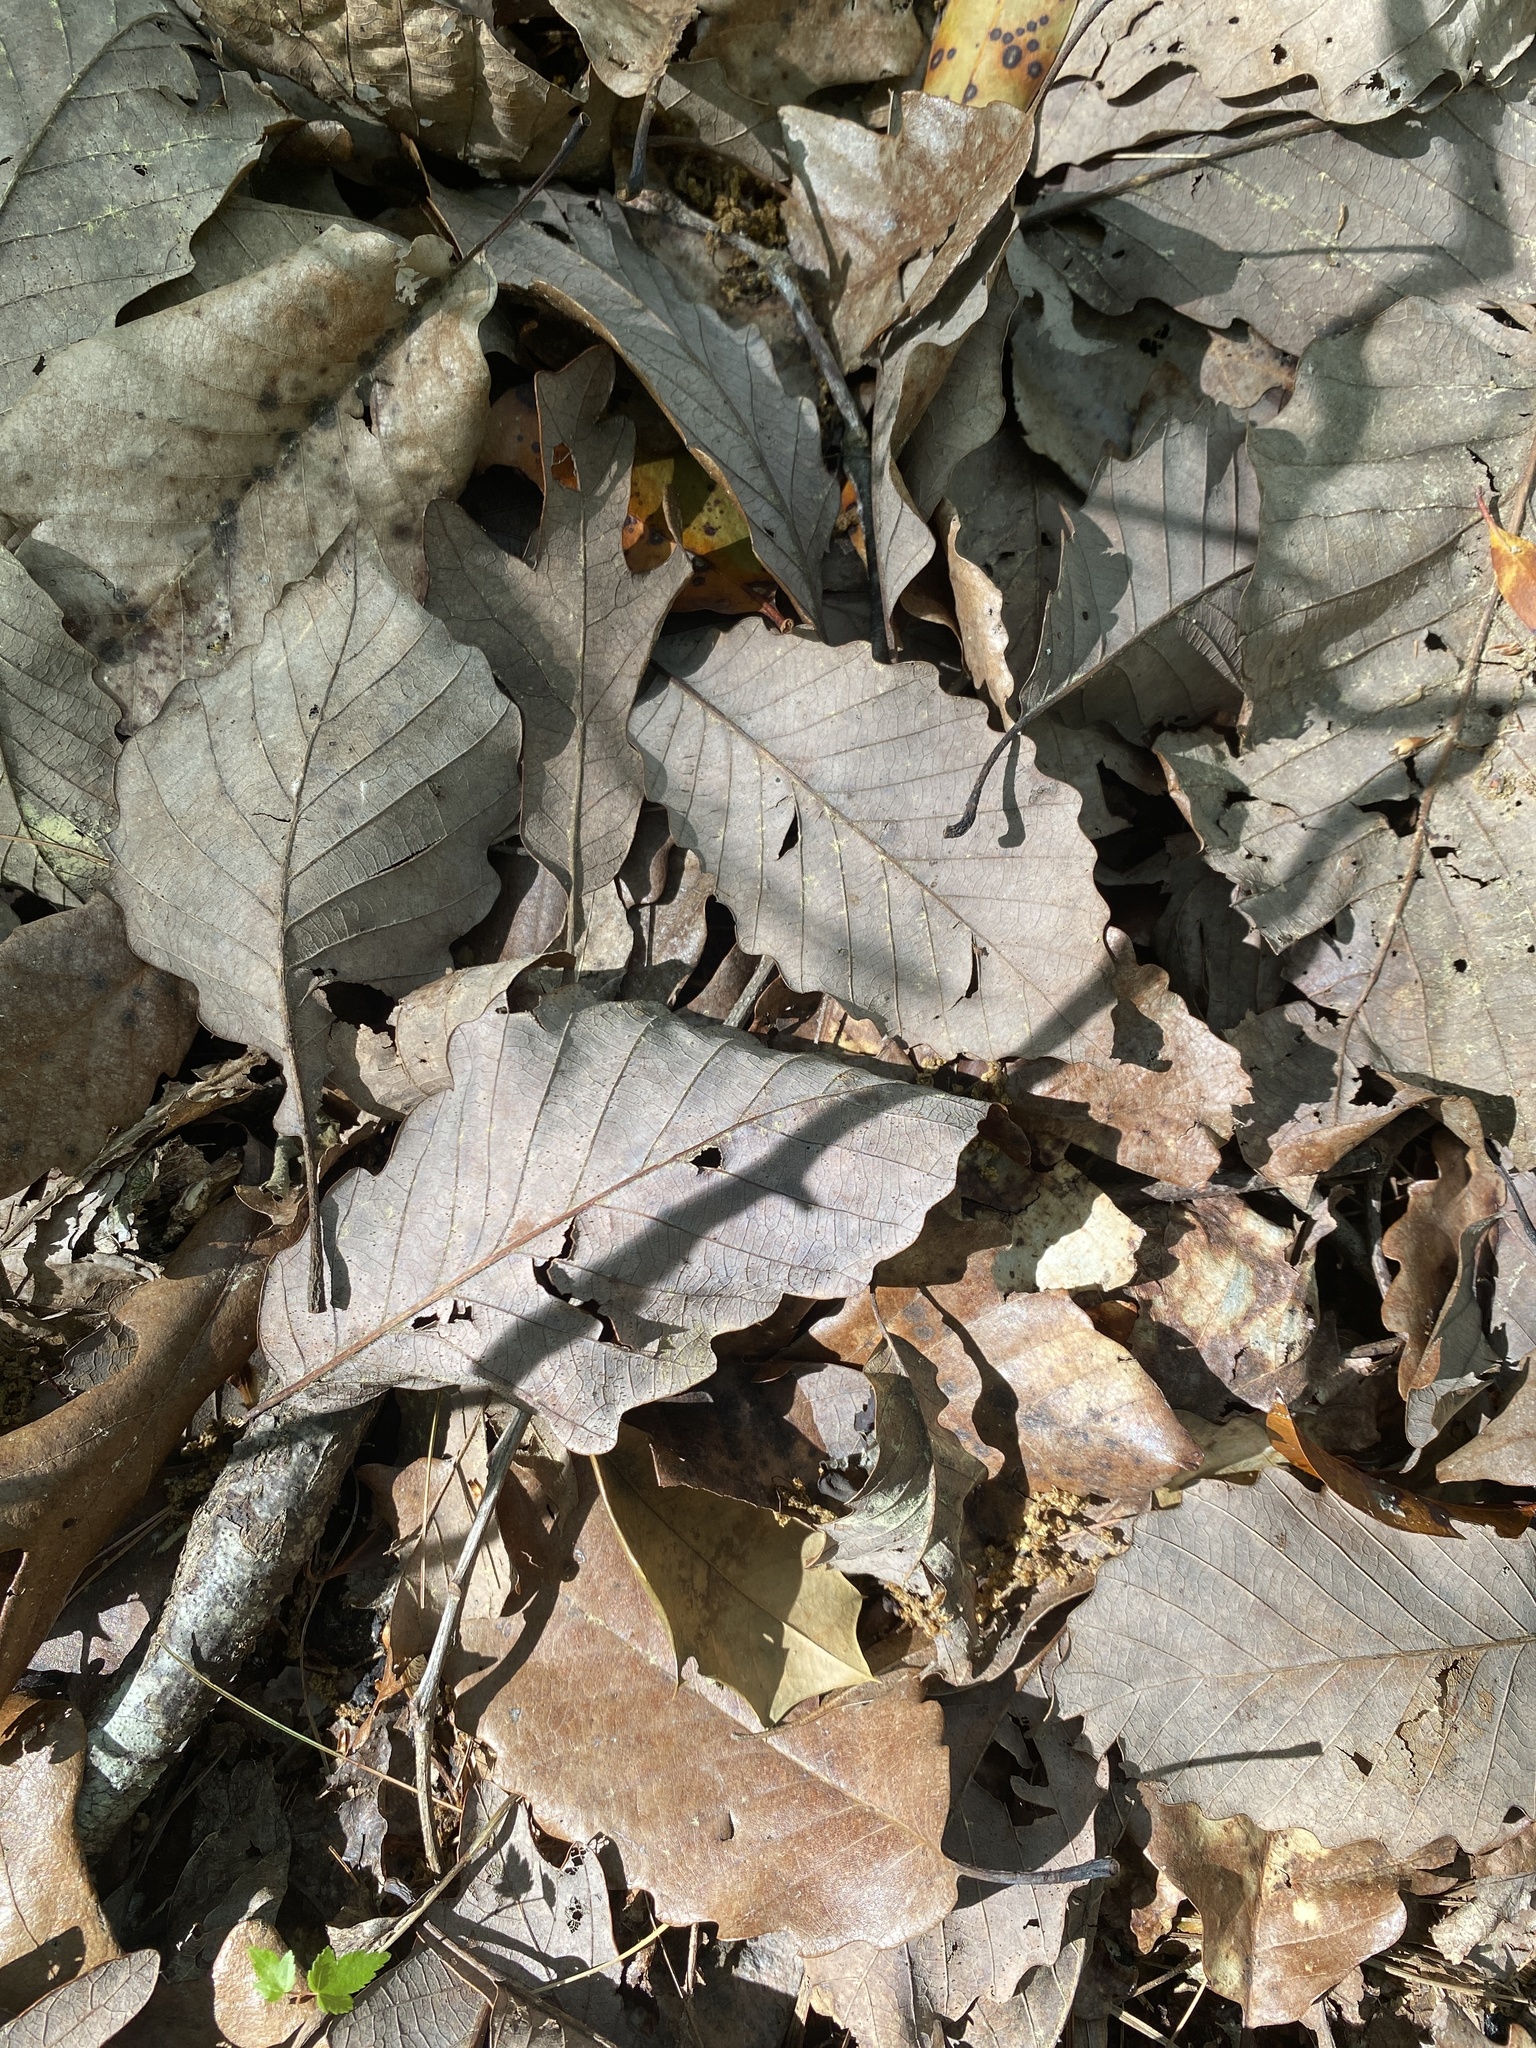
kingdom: Plantae
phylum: Tracheophyta
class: Magnoliopsida
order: Fagales
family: Fagaceae
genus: Quercus
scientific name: Quercus montana
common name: Chestnut oak
